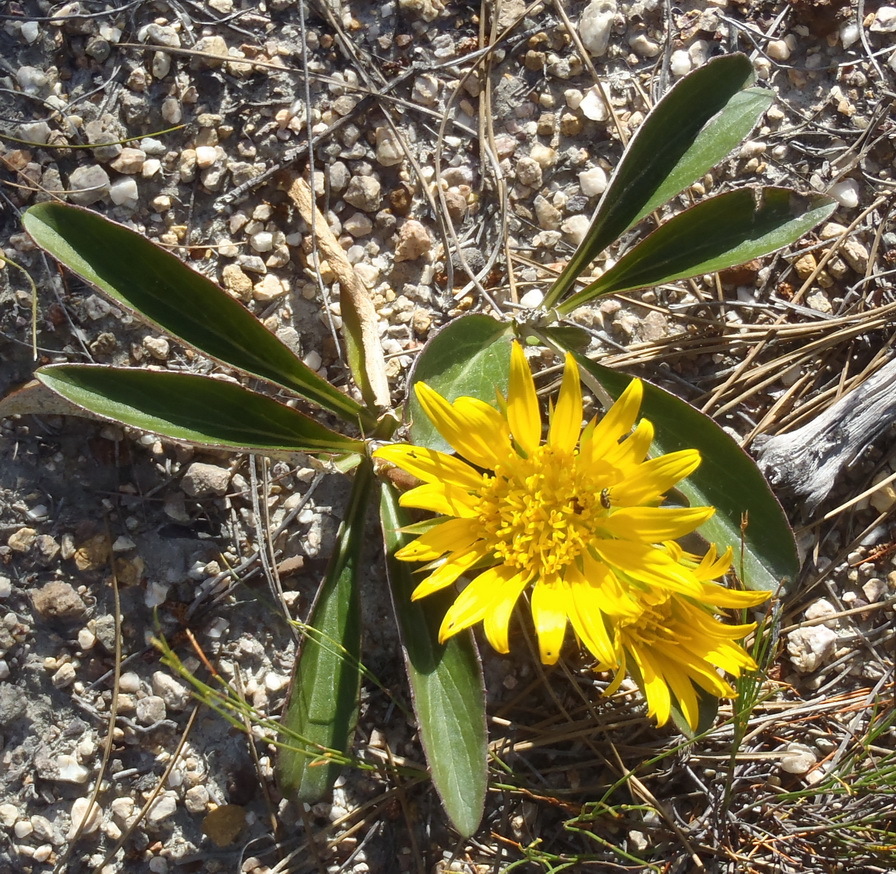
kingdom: Plantae
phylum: Tracheophyta
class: Magnoliopsida
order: Asterales
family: Asteraceae
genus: Berkheya
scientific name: Berkheya herbacea
